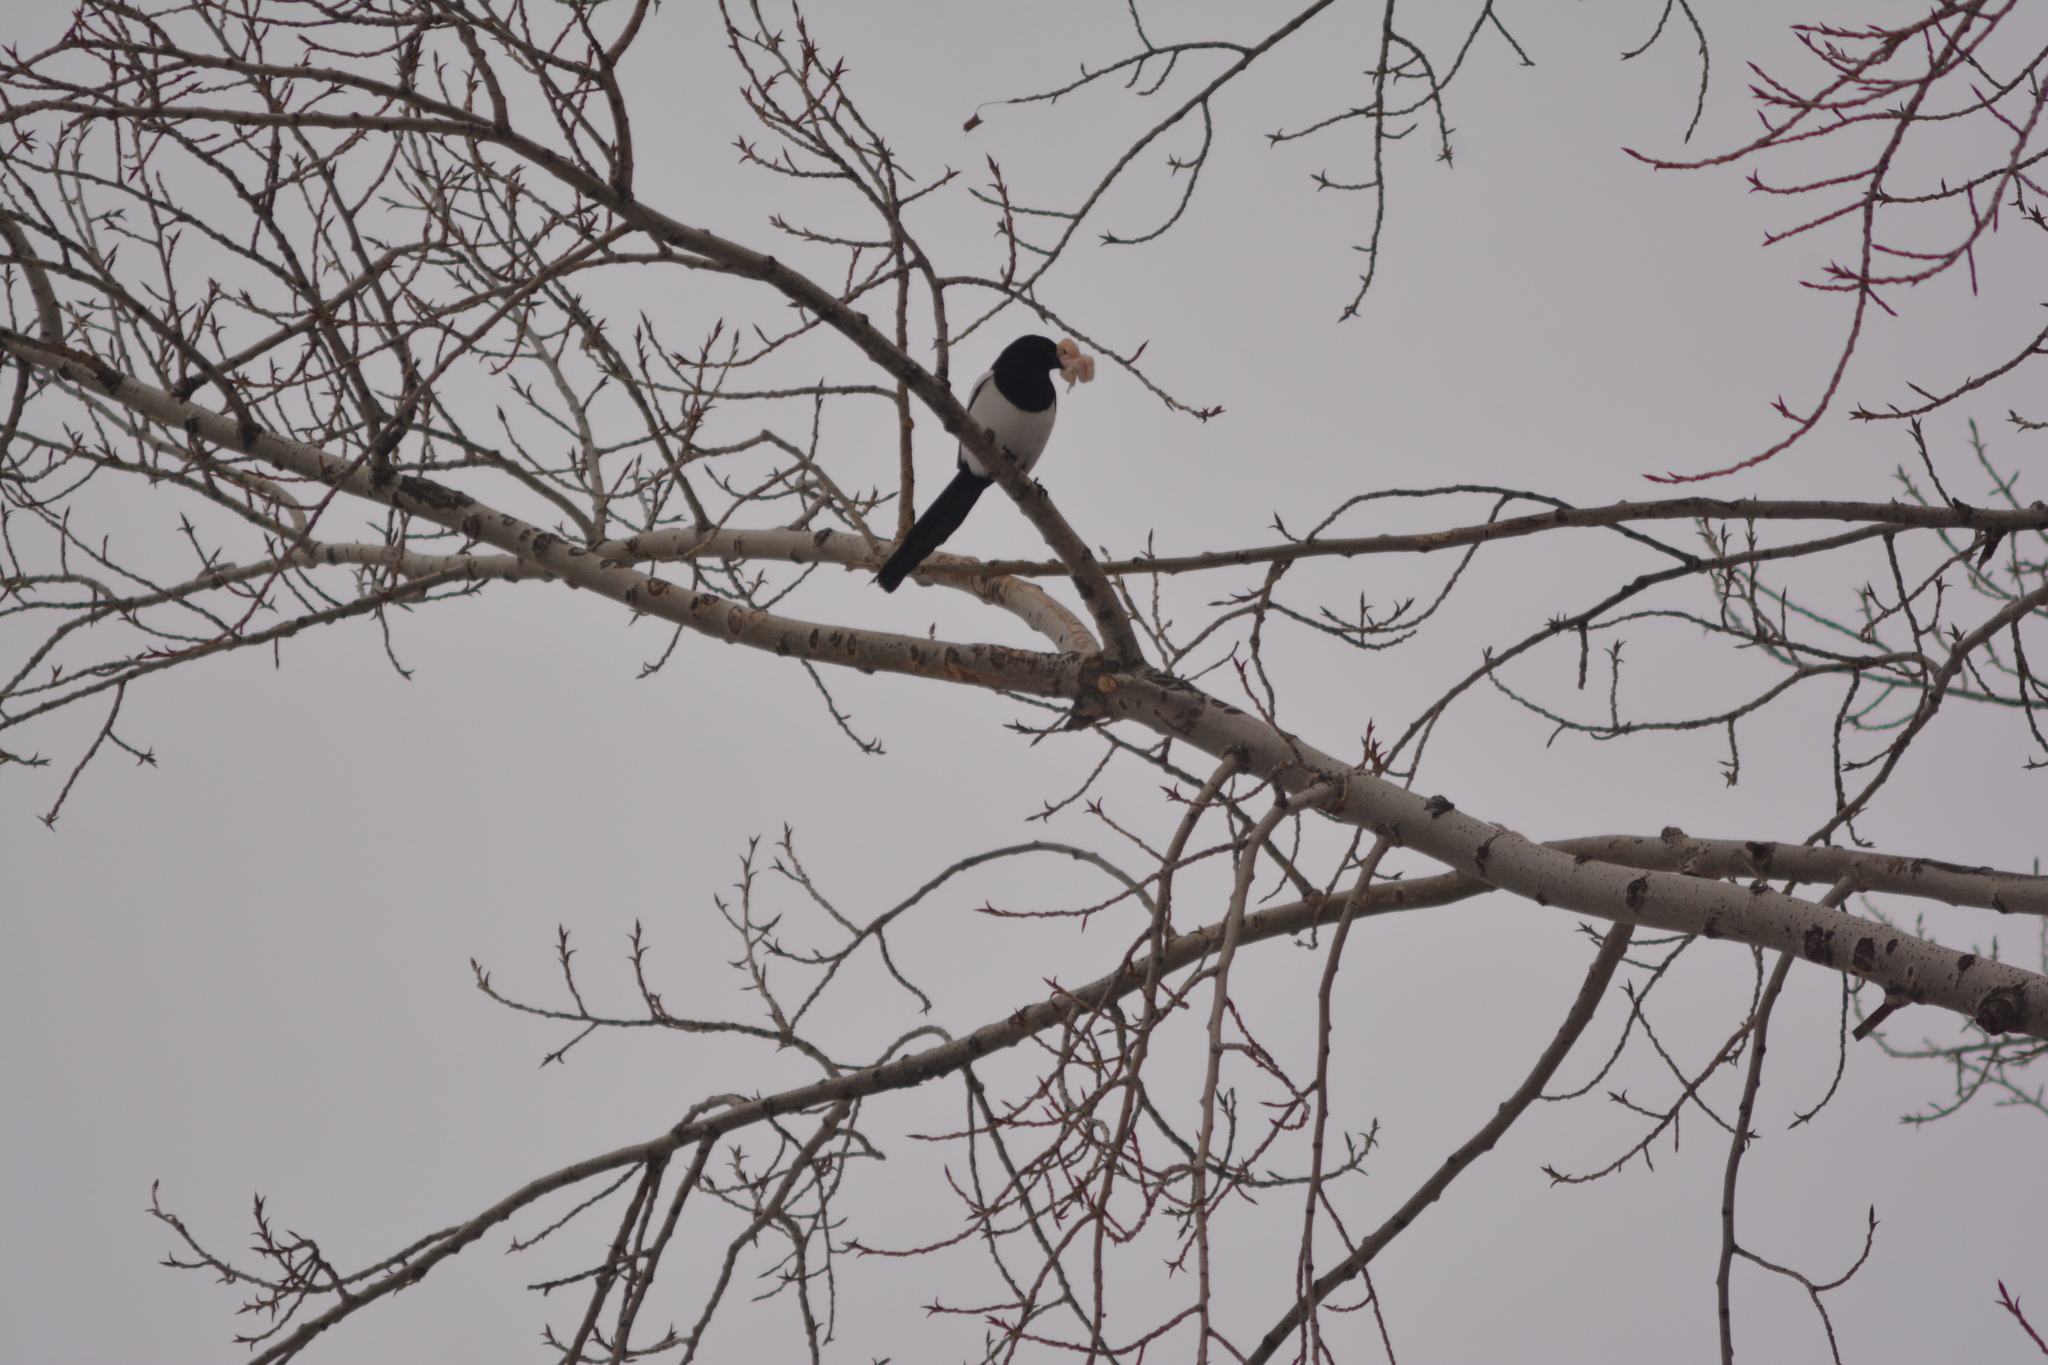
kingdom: Animalia
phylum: Chordata
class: Aves
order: Passeriformes
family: Corvidae
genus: Pica
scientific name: Pica pica
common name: Eurasian magpie
